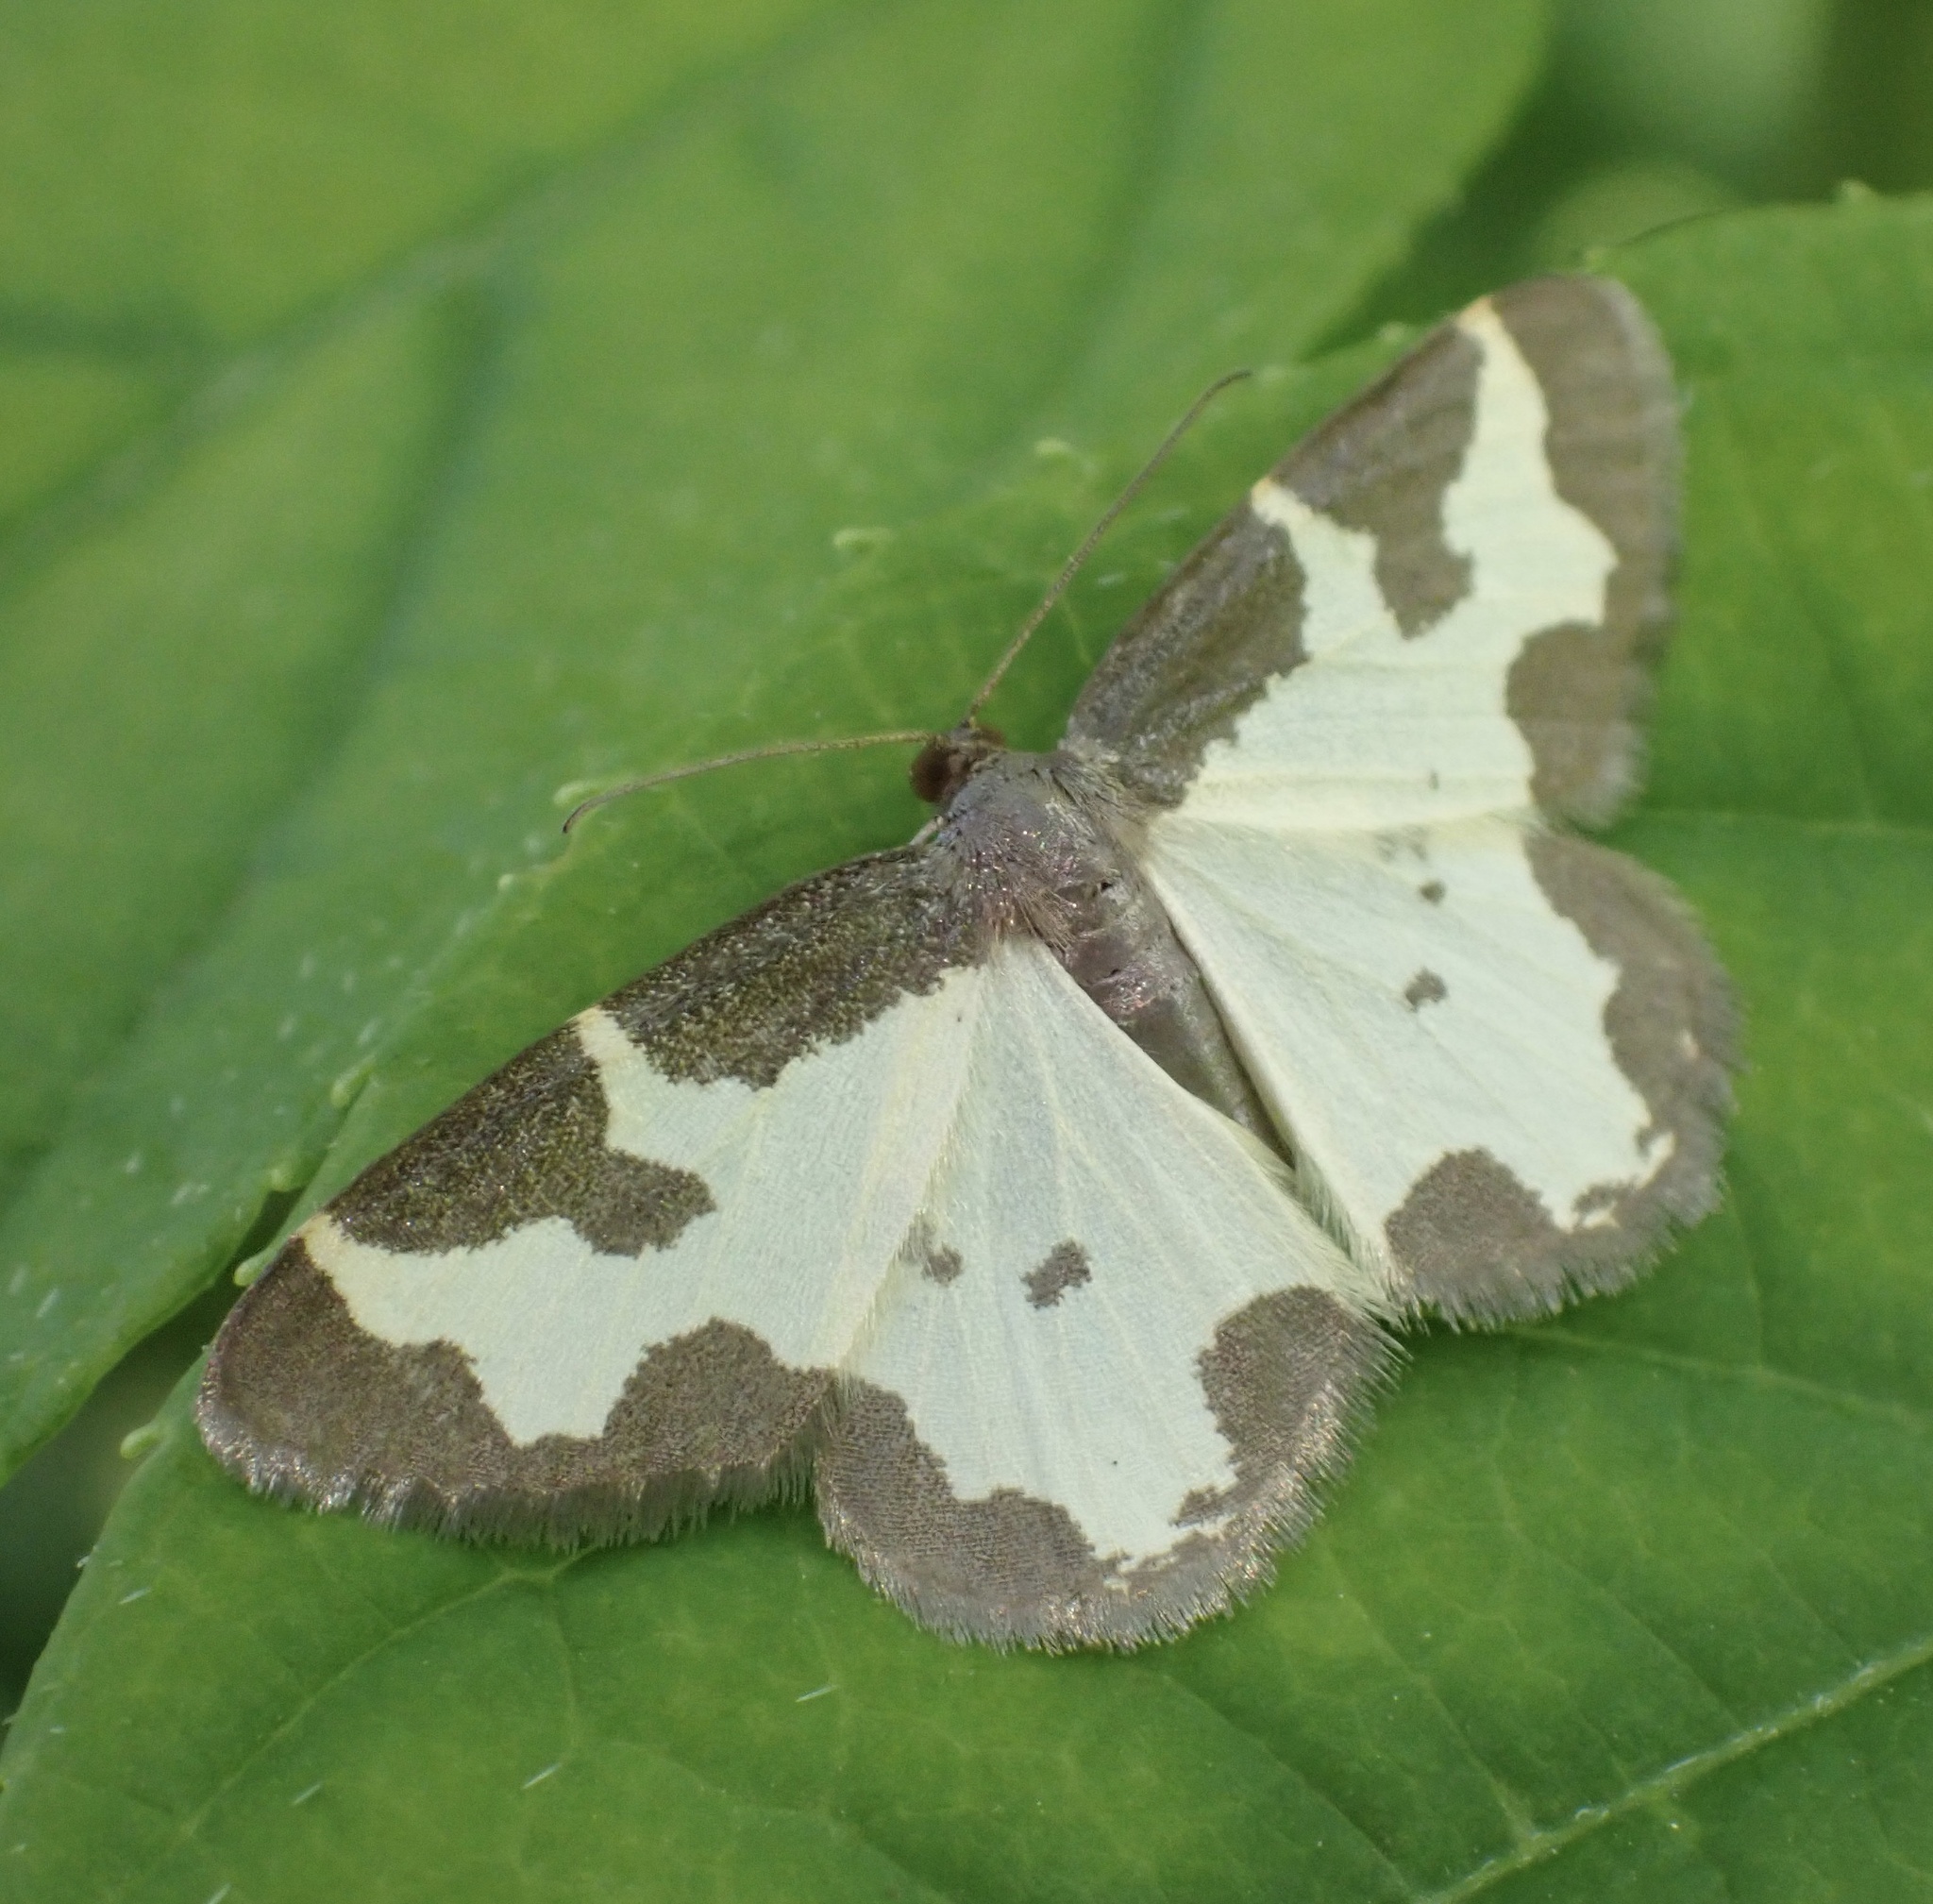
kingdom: Animalia
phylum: Arthropoda
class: Insecta
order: Lepidoptera
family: Geometridae
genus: Lomaspilis
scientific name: Lomaspilis marginata
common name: Clouded border
